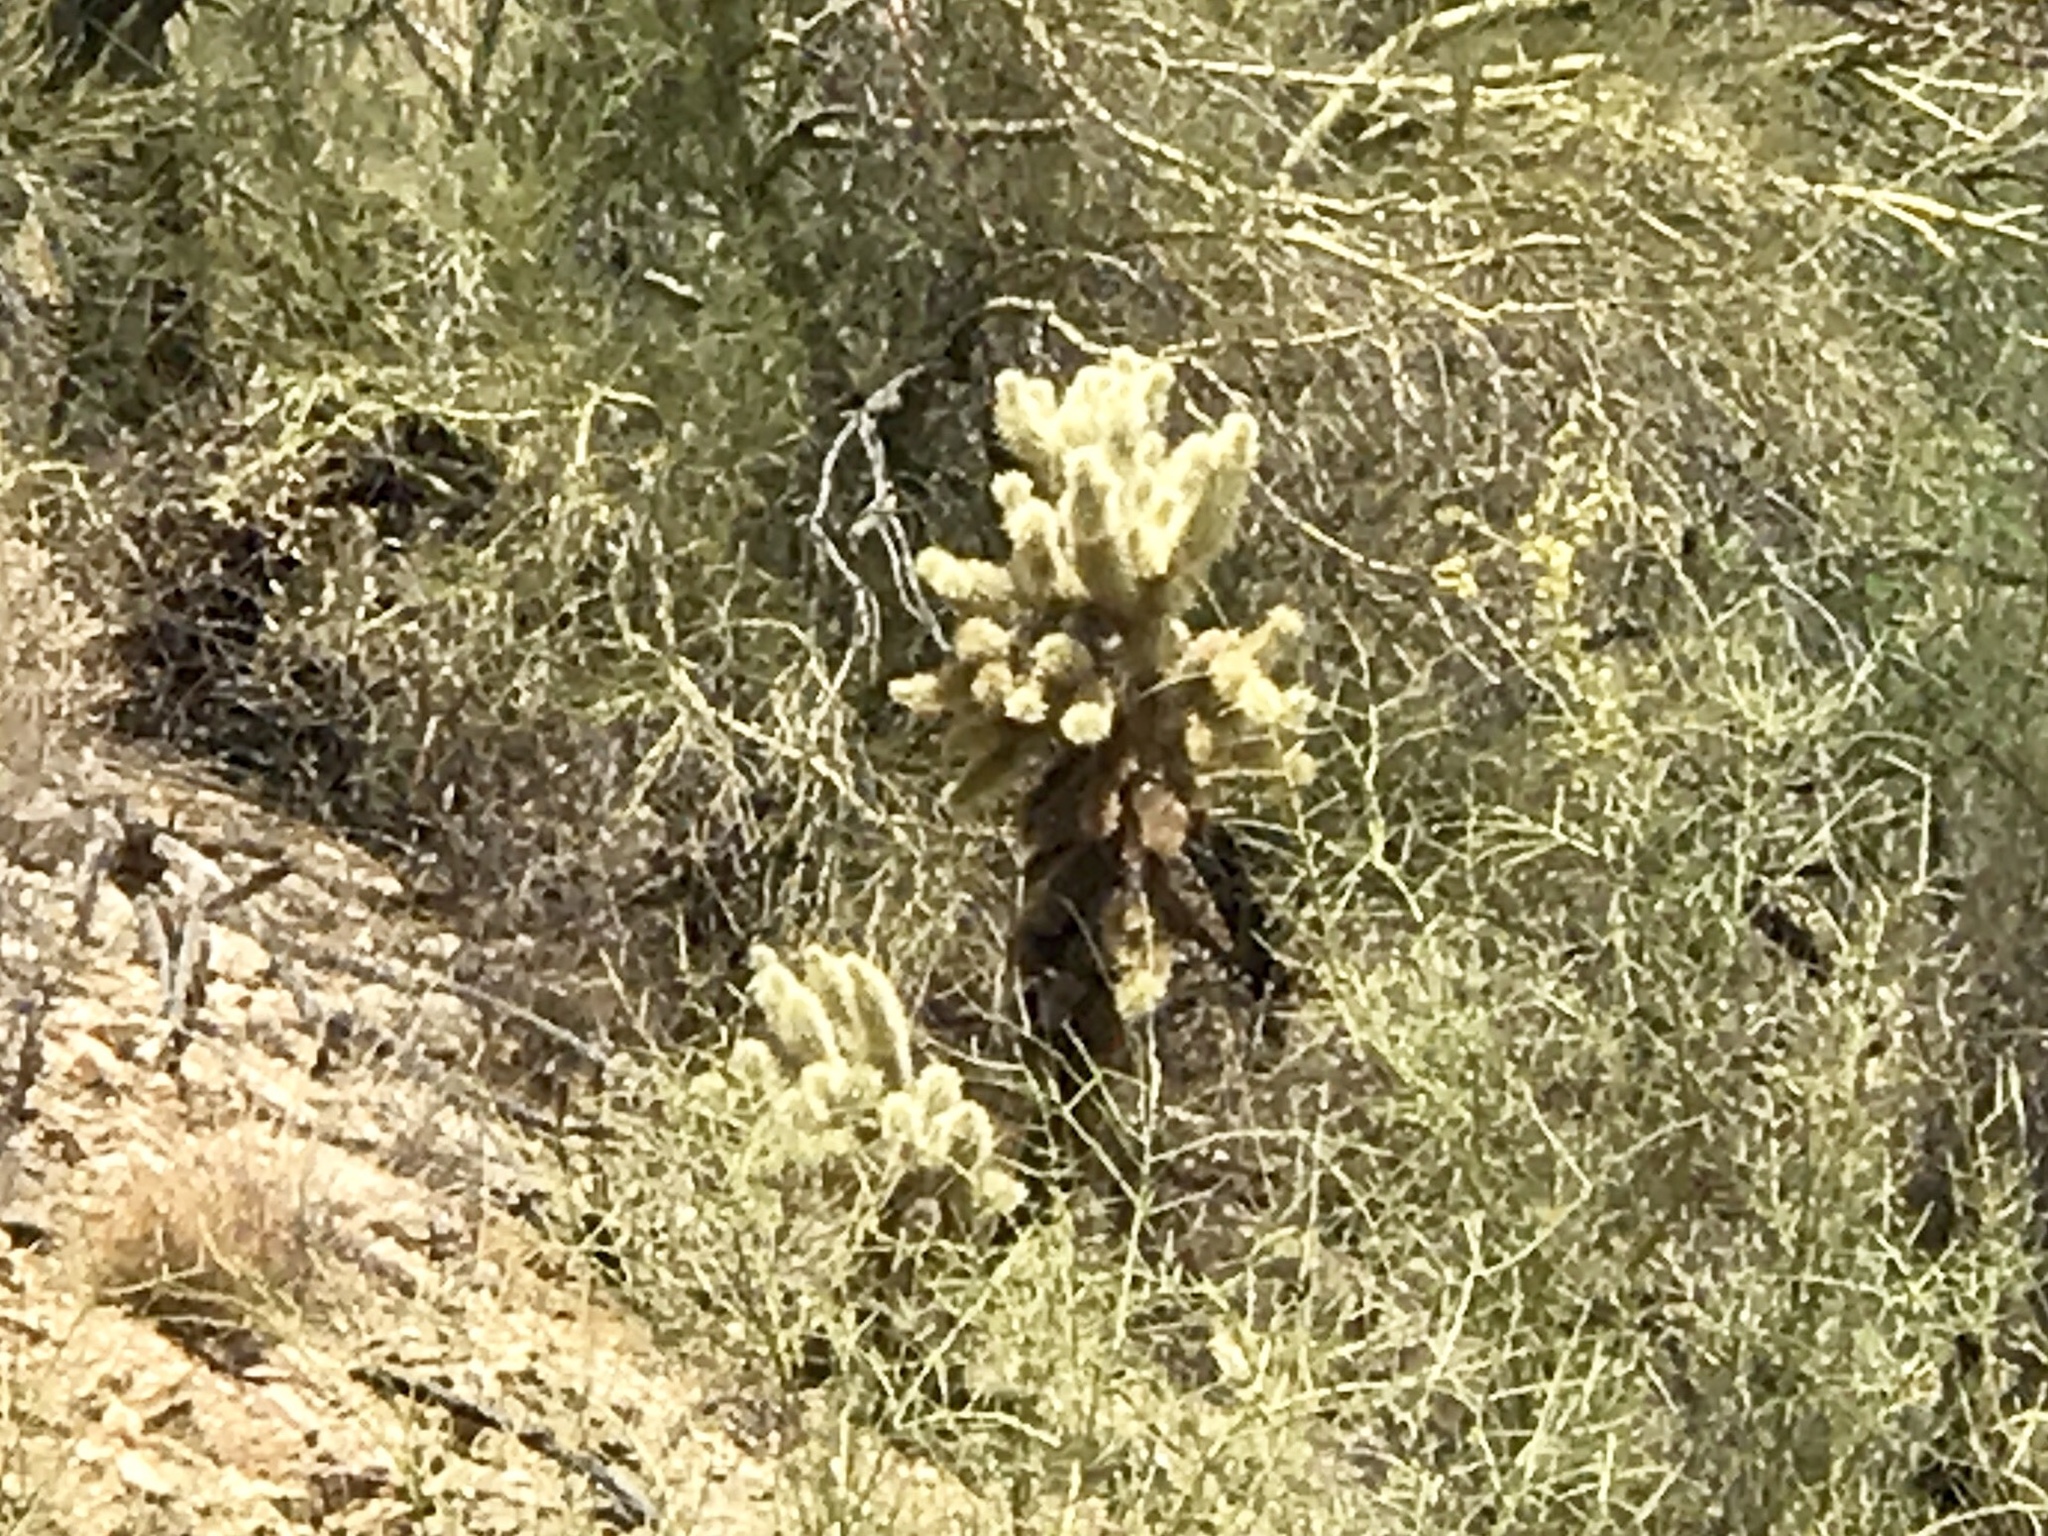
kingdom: Plantae
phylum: Tracheophyta
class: Magnoliopsida
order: Caryophyllales
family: Cactaceae
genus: Cylindropuntia
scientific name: Cylindropuntia fosbergii
